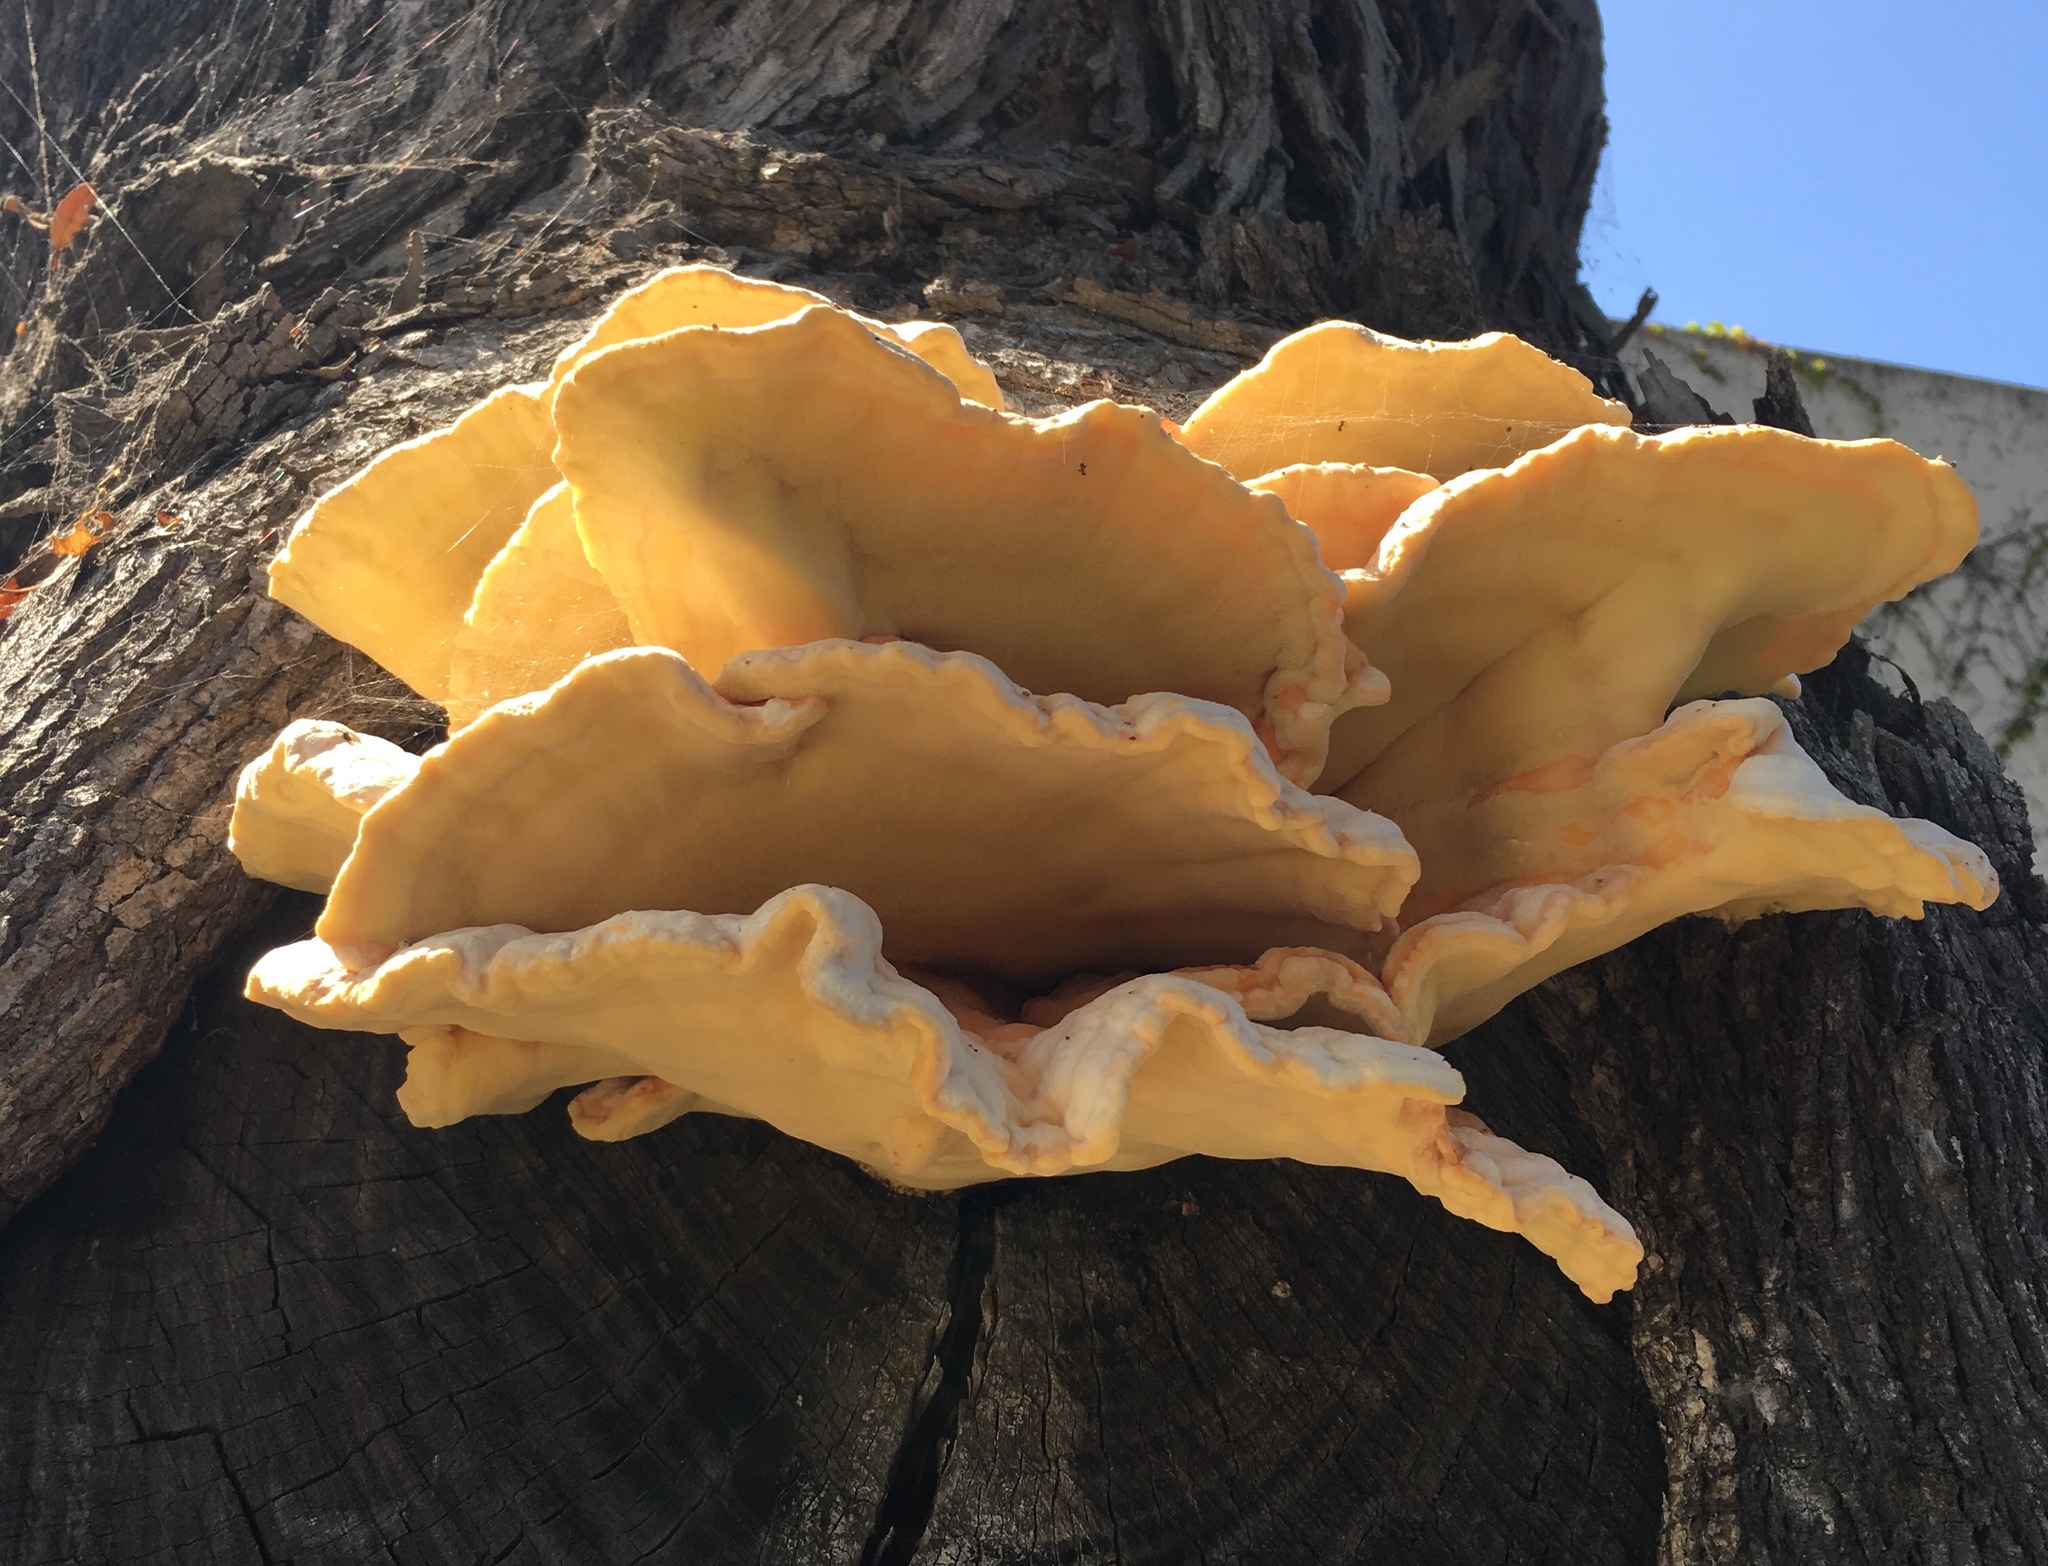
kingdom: Fungi
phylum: Basidiomycota
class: Agaricomycetes
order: Polyporales
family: Laetiporaceae
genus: Laetiporus
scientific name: Laetiporus gilbertsonii
